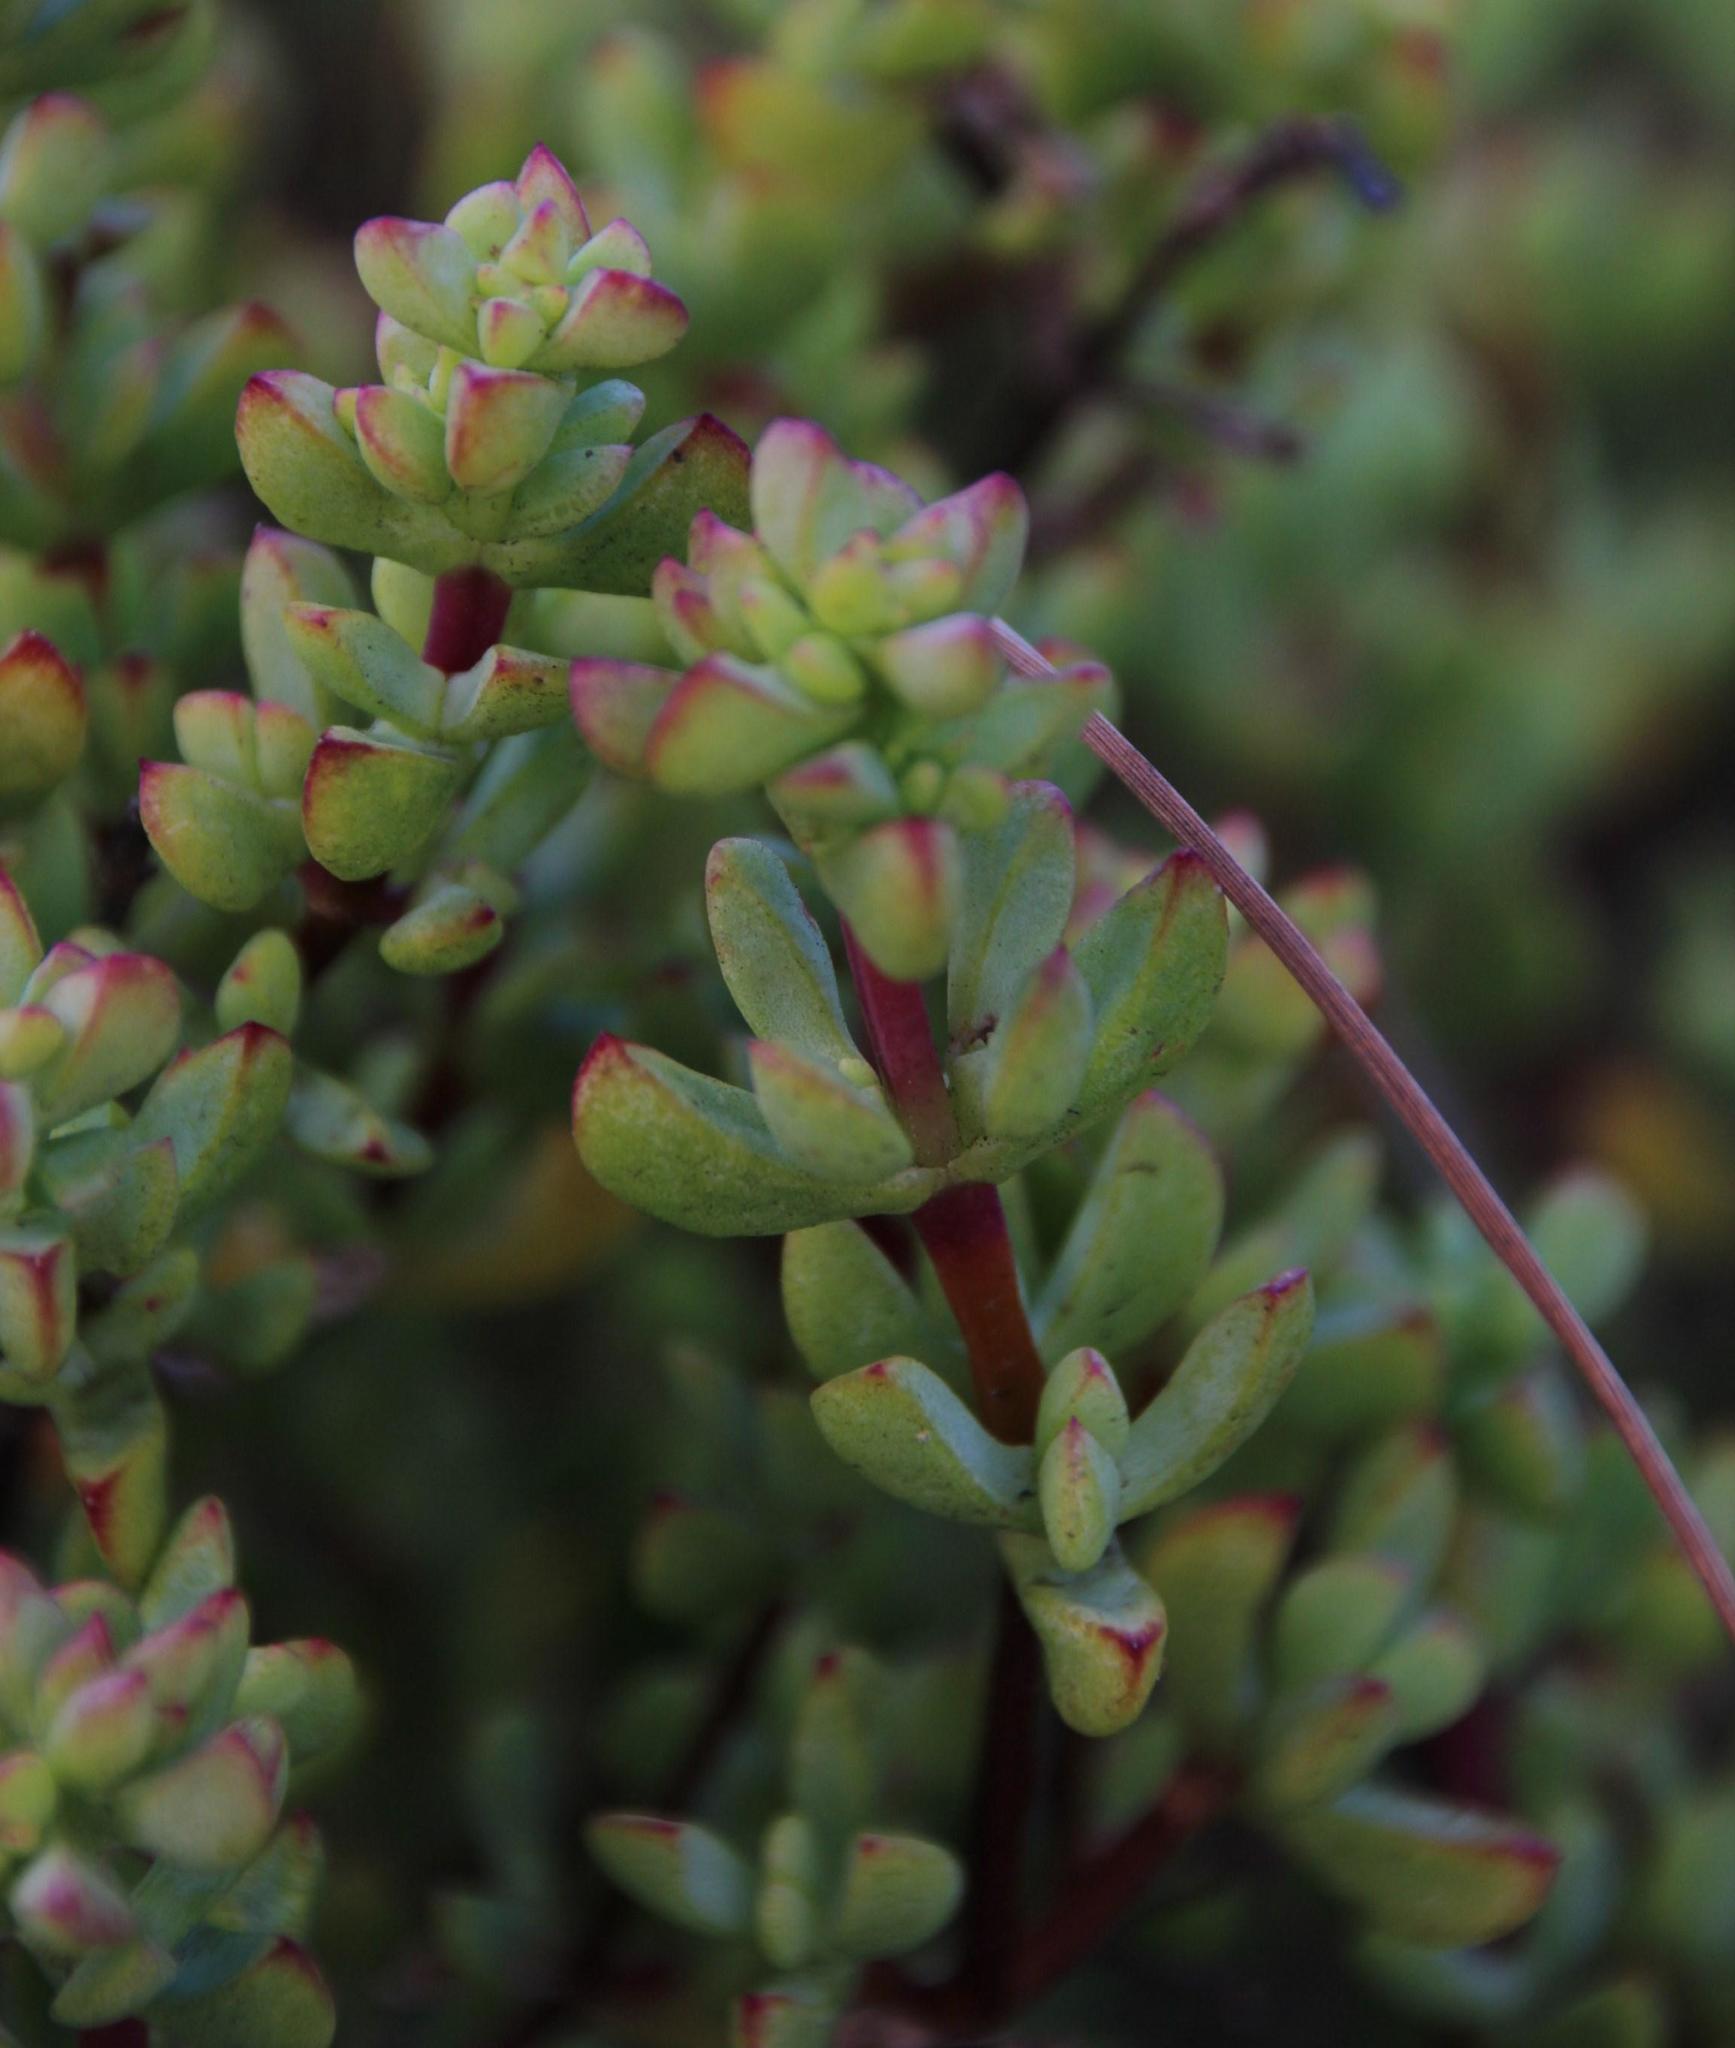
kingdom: Plantae
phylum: Tracheophyta
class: Magnoliopsida
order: Caryophyllales
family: Aizoaceae
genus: Oscularia
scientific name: Oscularia falciformis
